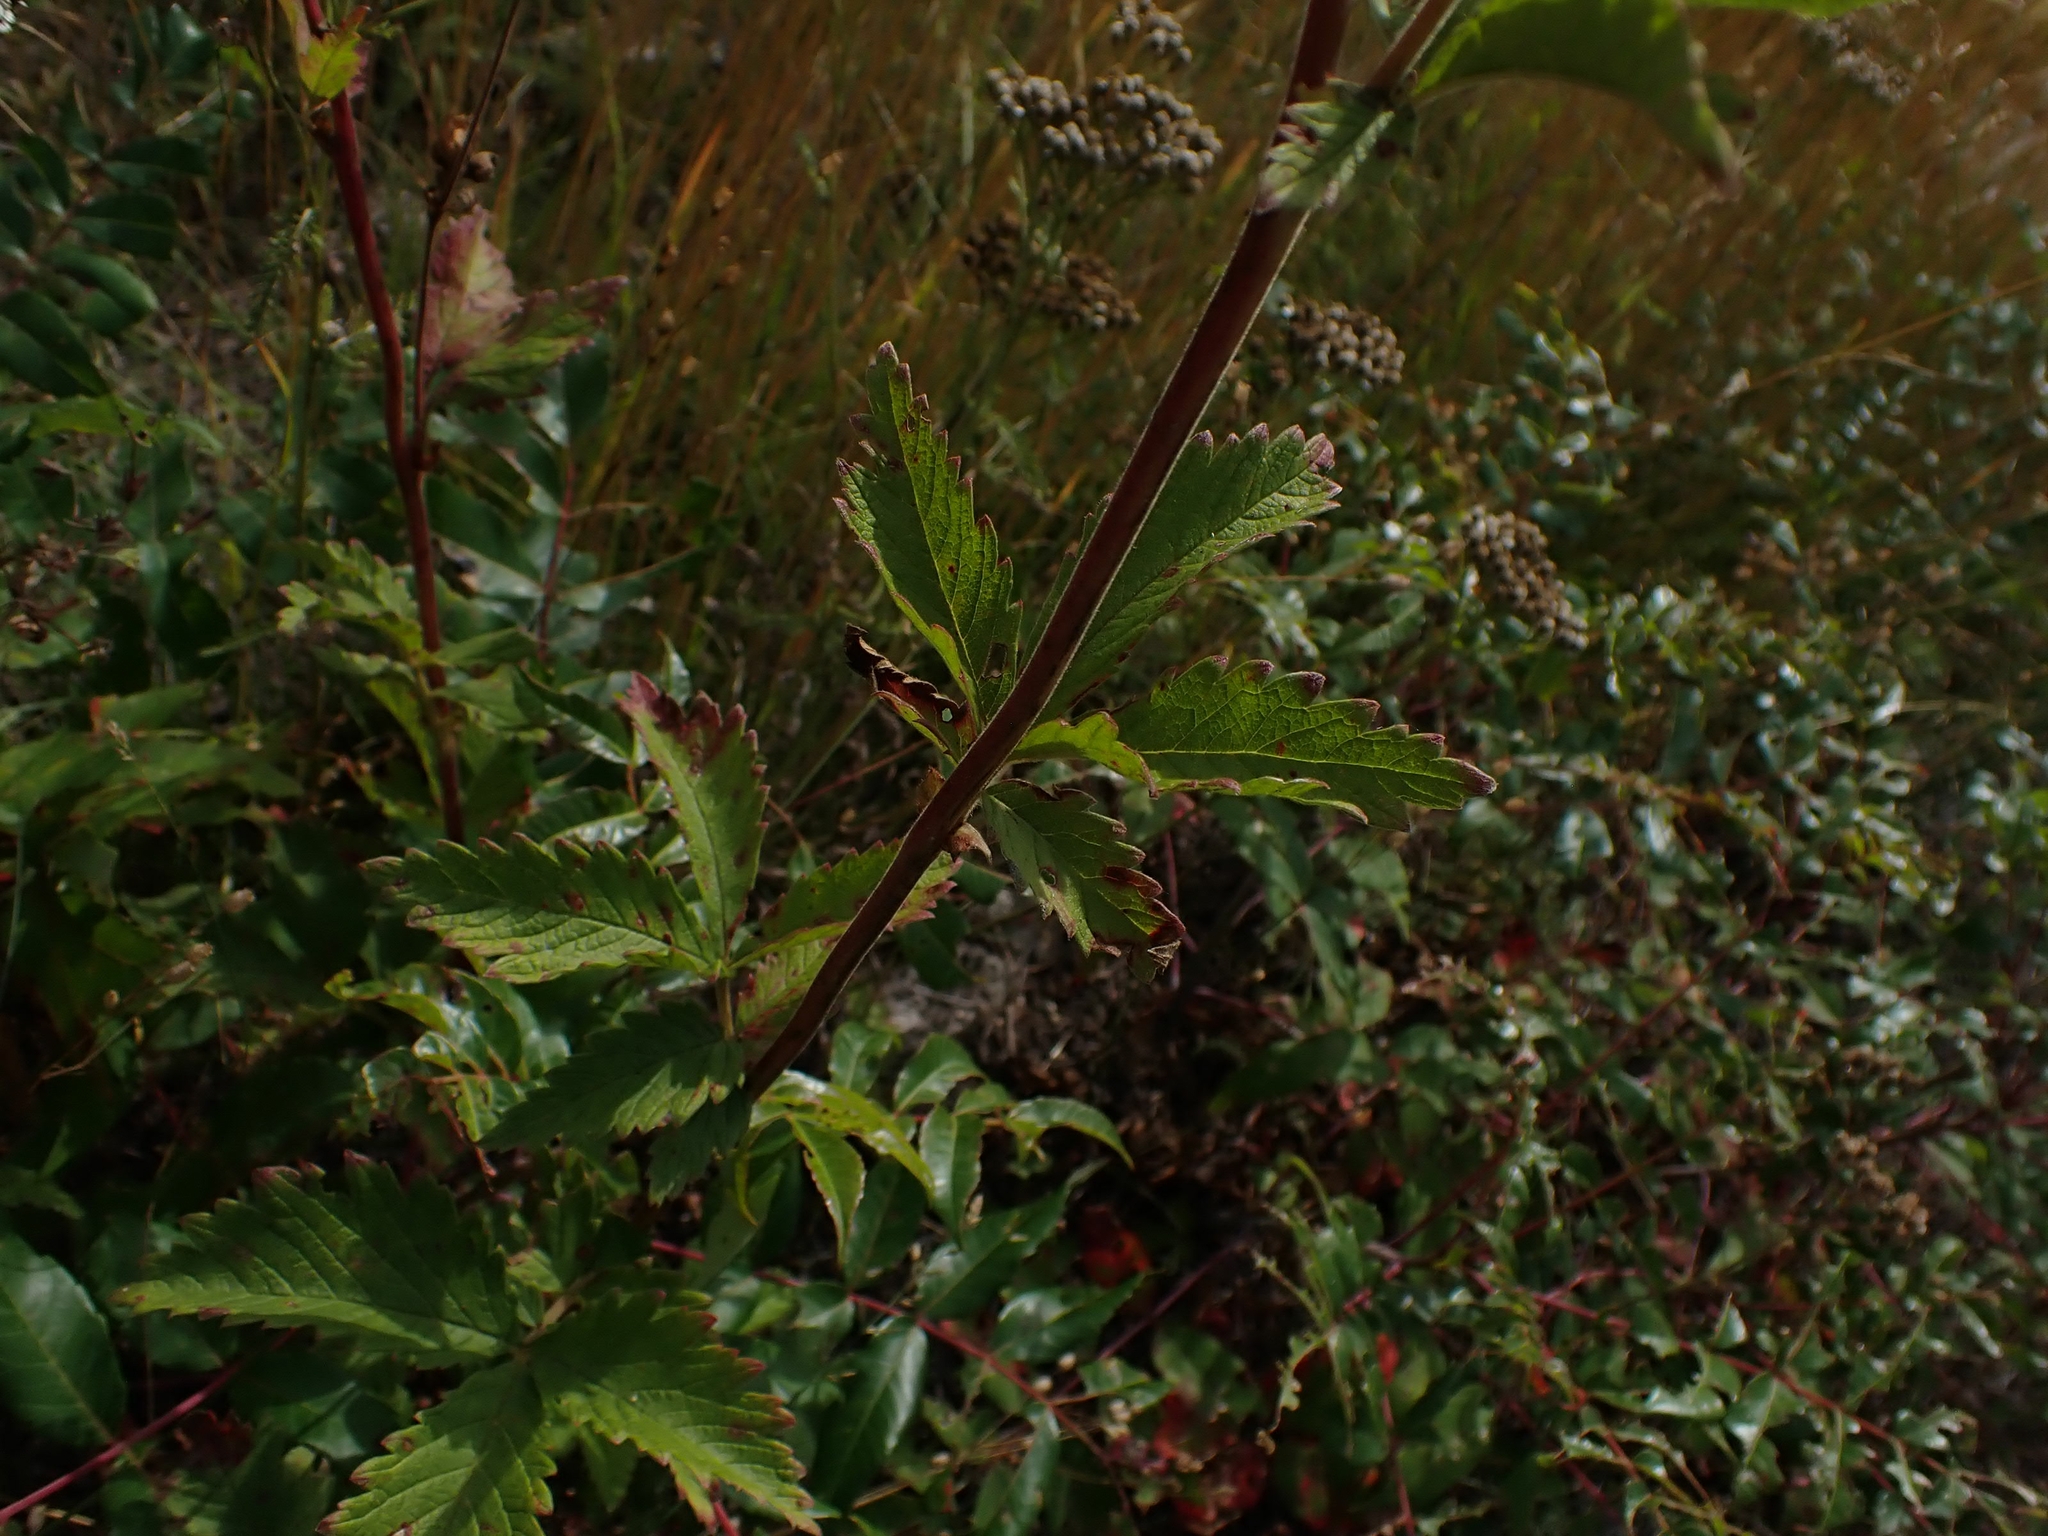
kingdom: Plantae
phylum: Tracheophyta
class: Magnoliopsida
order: Rosales
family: Rosaceae
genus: Drymocallis
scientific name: Drymocallis arguta
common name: Tall cinquefoil
